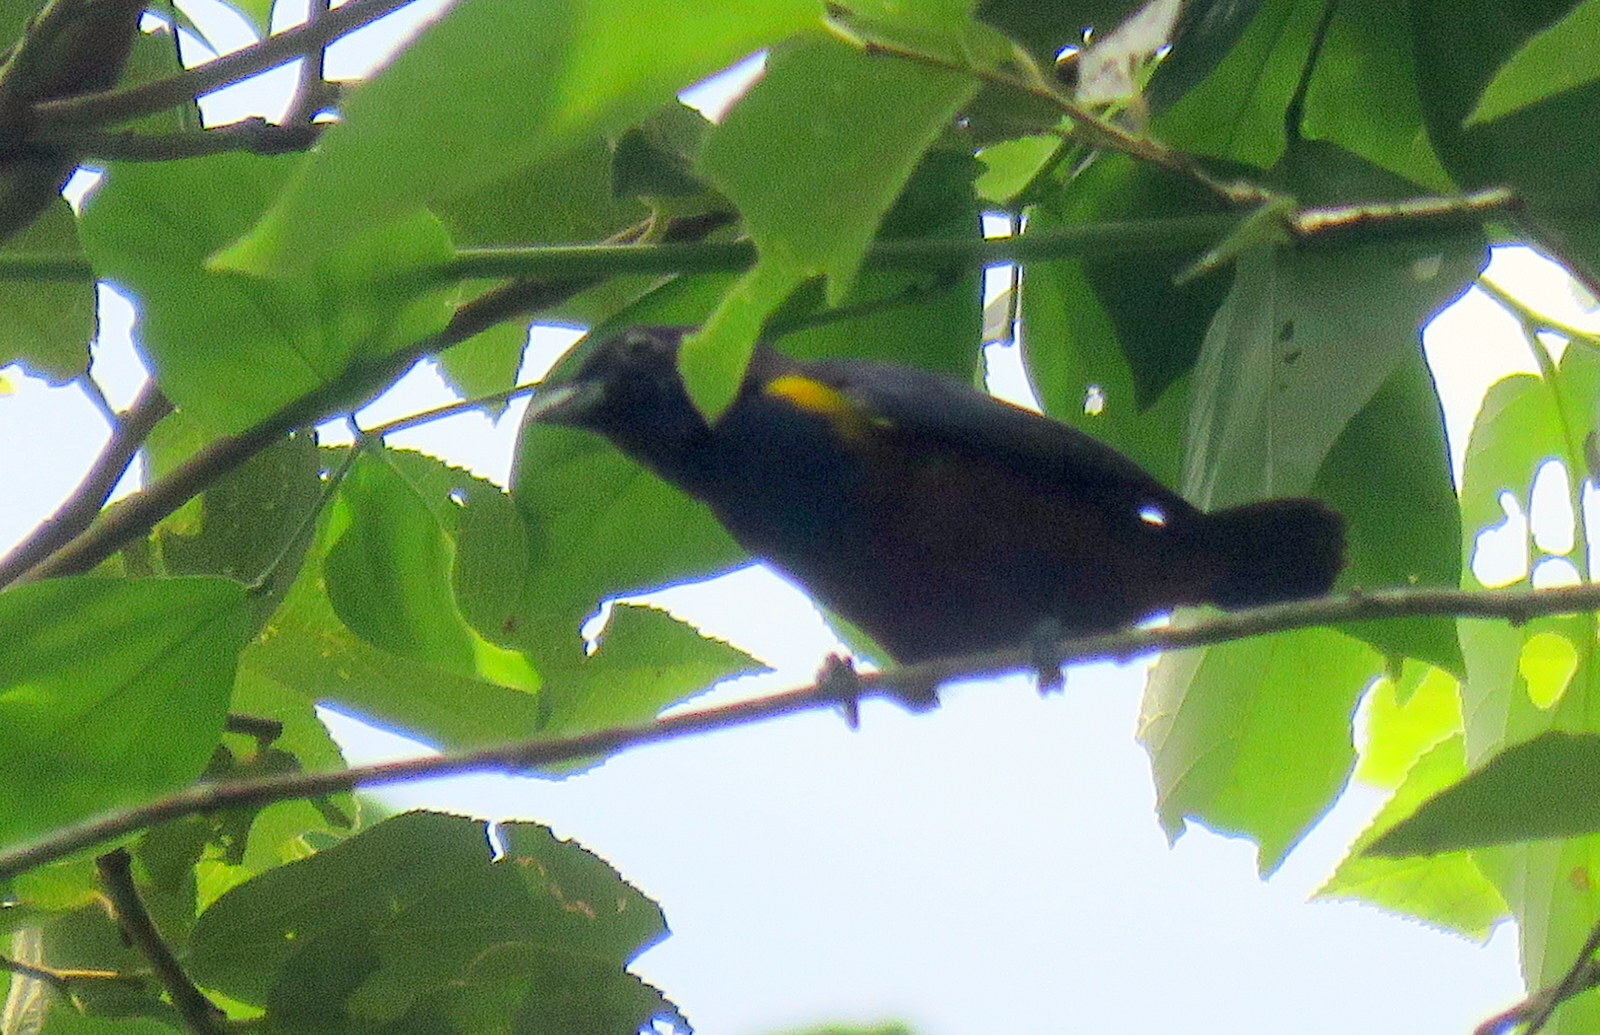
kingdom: Animalia
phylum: Chordata
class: Aves
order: Passeriformes
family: Fringillidae
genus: Euphonia
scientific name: Euphonia pectoralis
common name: Chestnut-bellied euphonia
